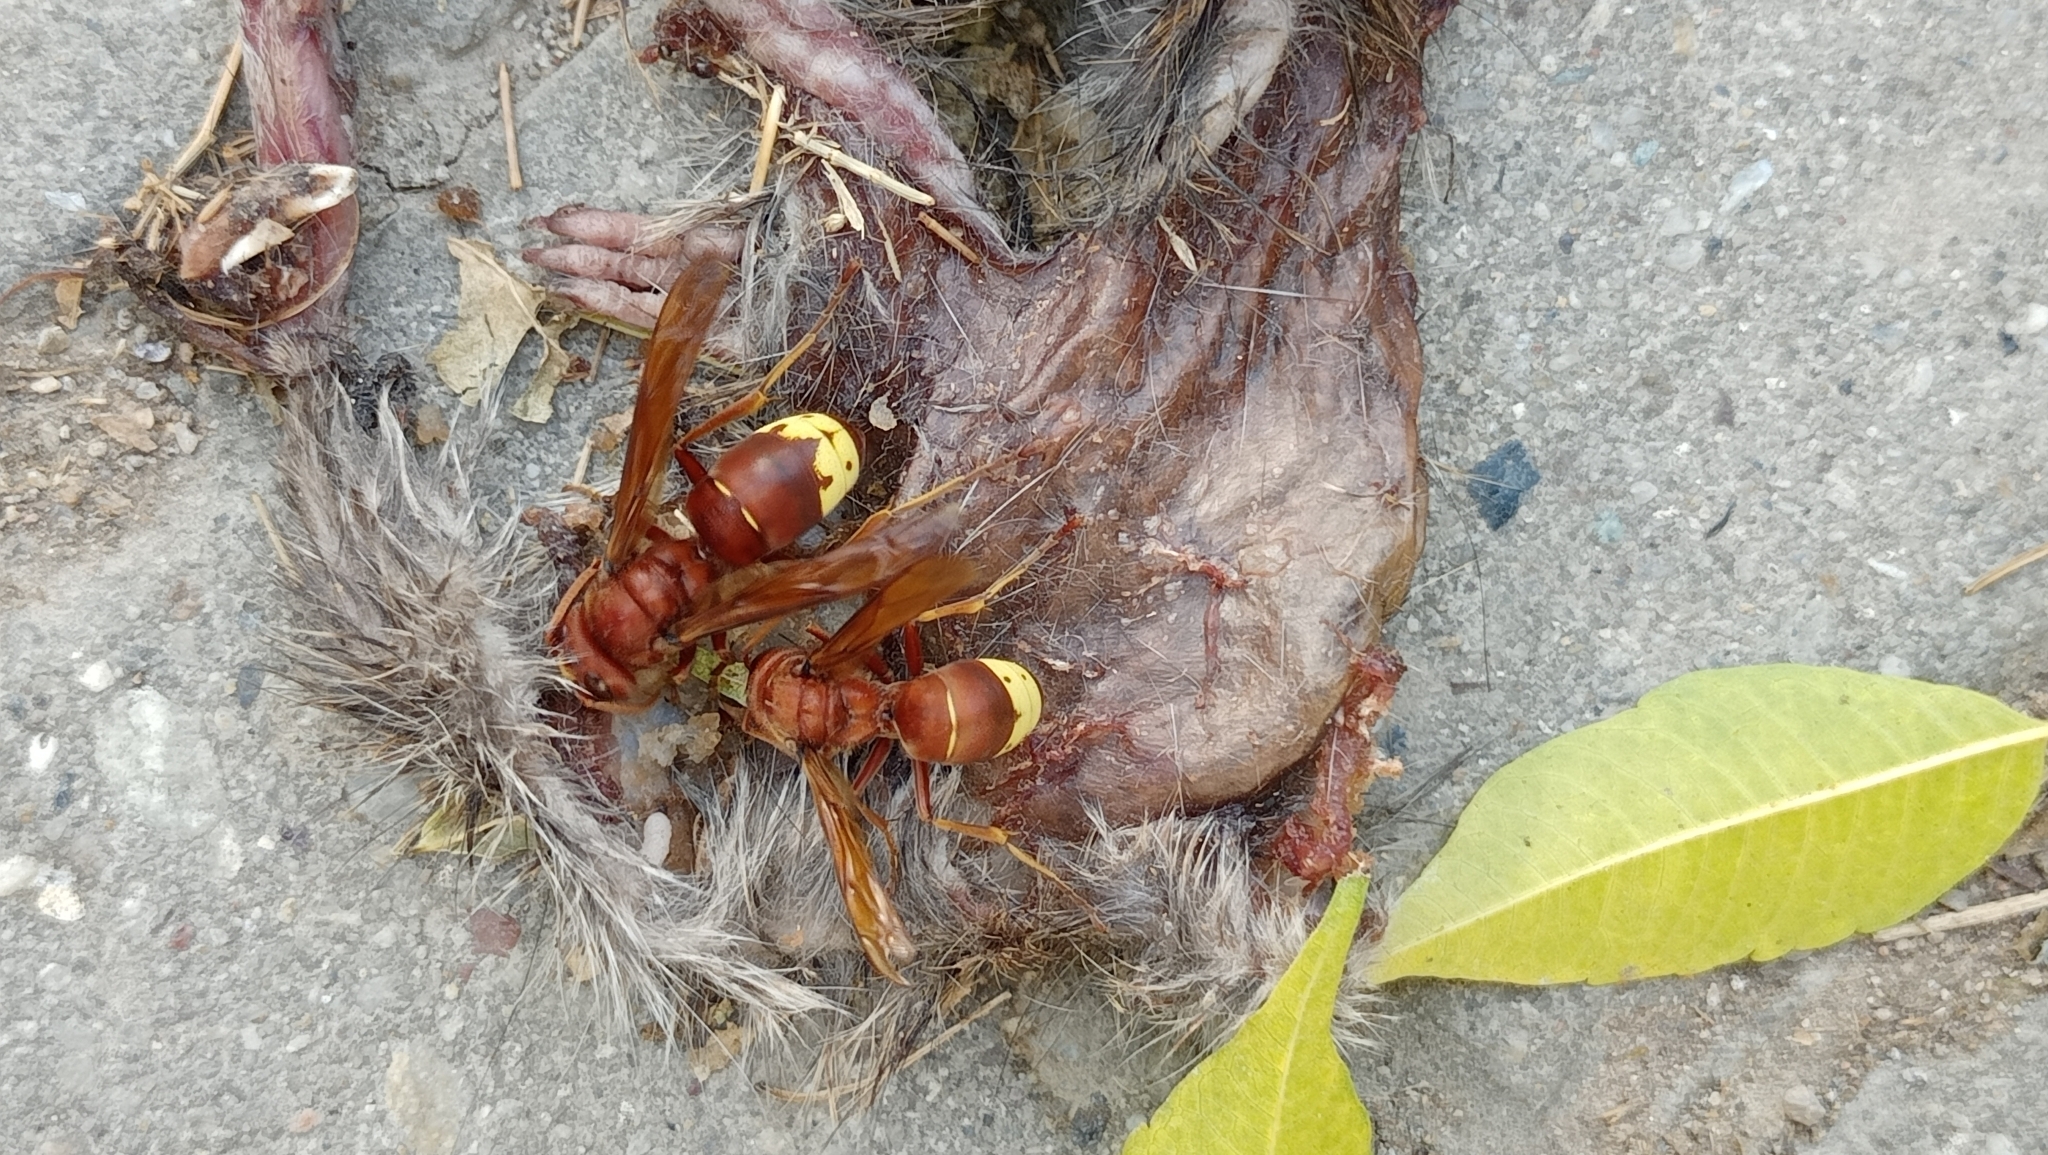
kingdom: Animalia
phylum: Arthropoda
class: Insecta
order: Hymenoptera
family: Vespidae
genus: Vespa
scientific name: Vespa orientalis
